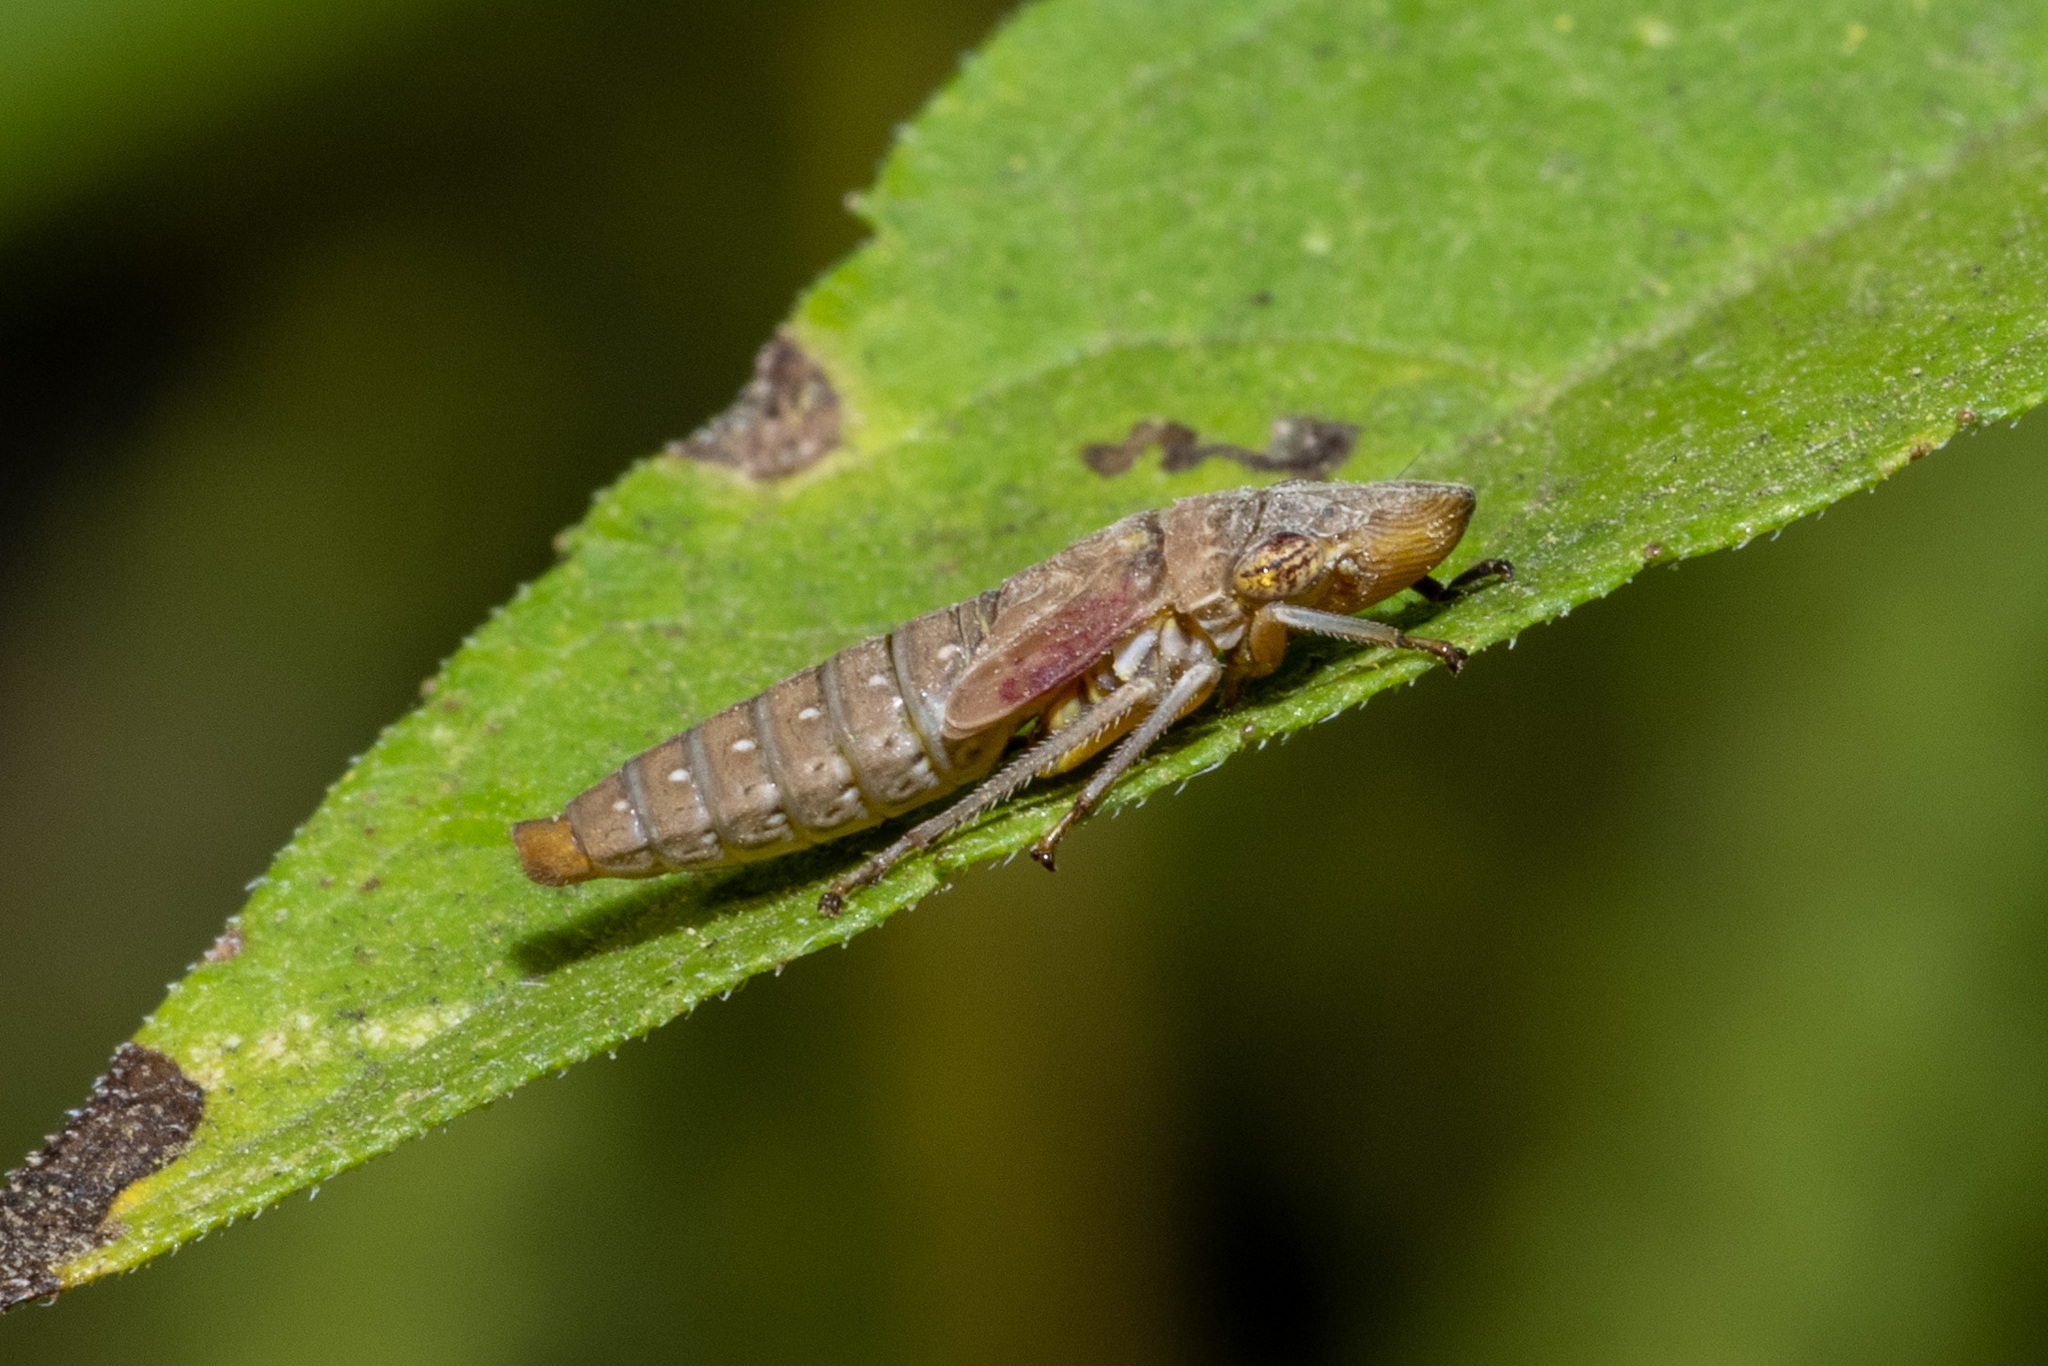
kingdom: Animalia
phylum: Arthropoda
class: Insecta
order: Hemiptera
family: Cicadellidae
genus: Homalodisca
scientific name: Homalodisca vitripennis
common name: Glassy-winged sharpshooter
